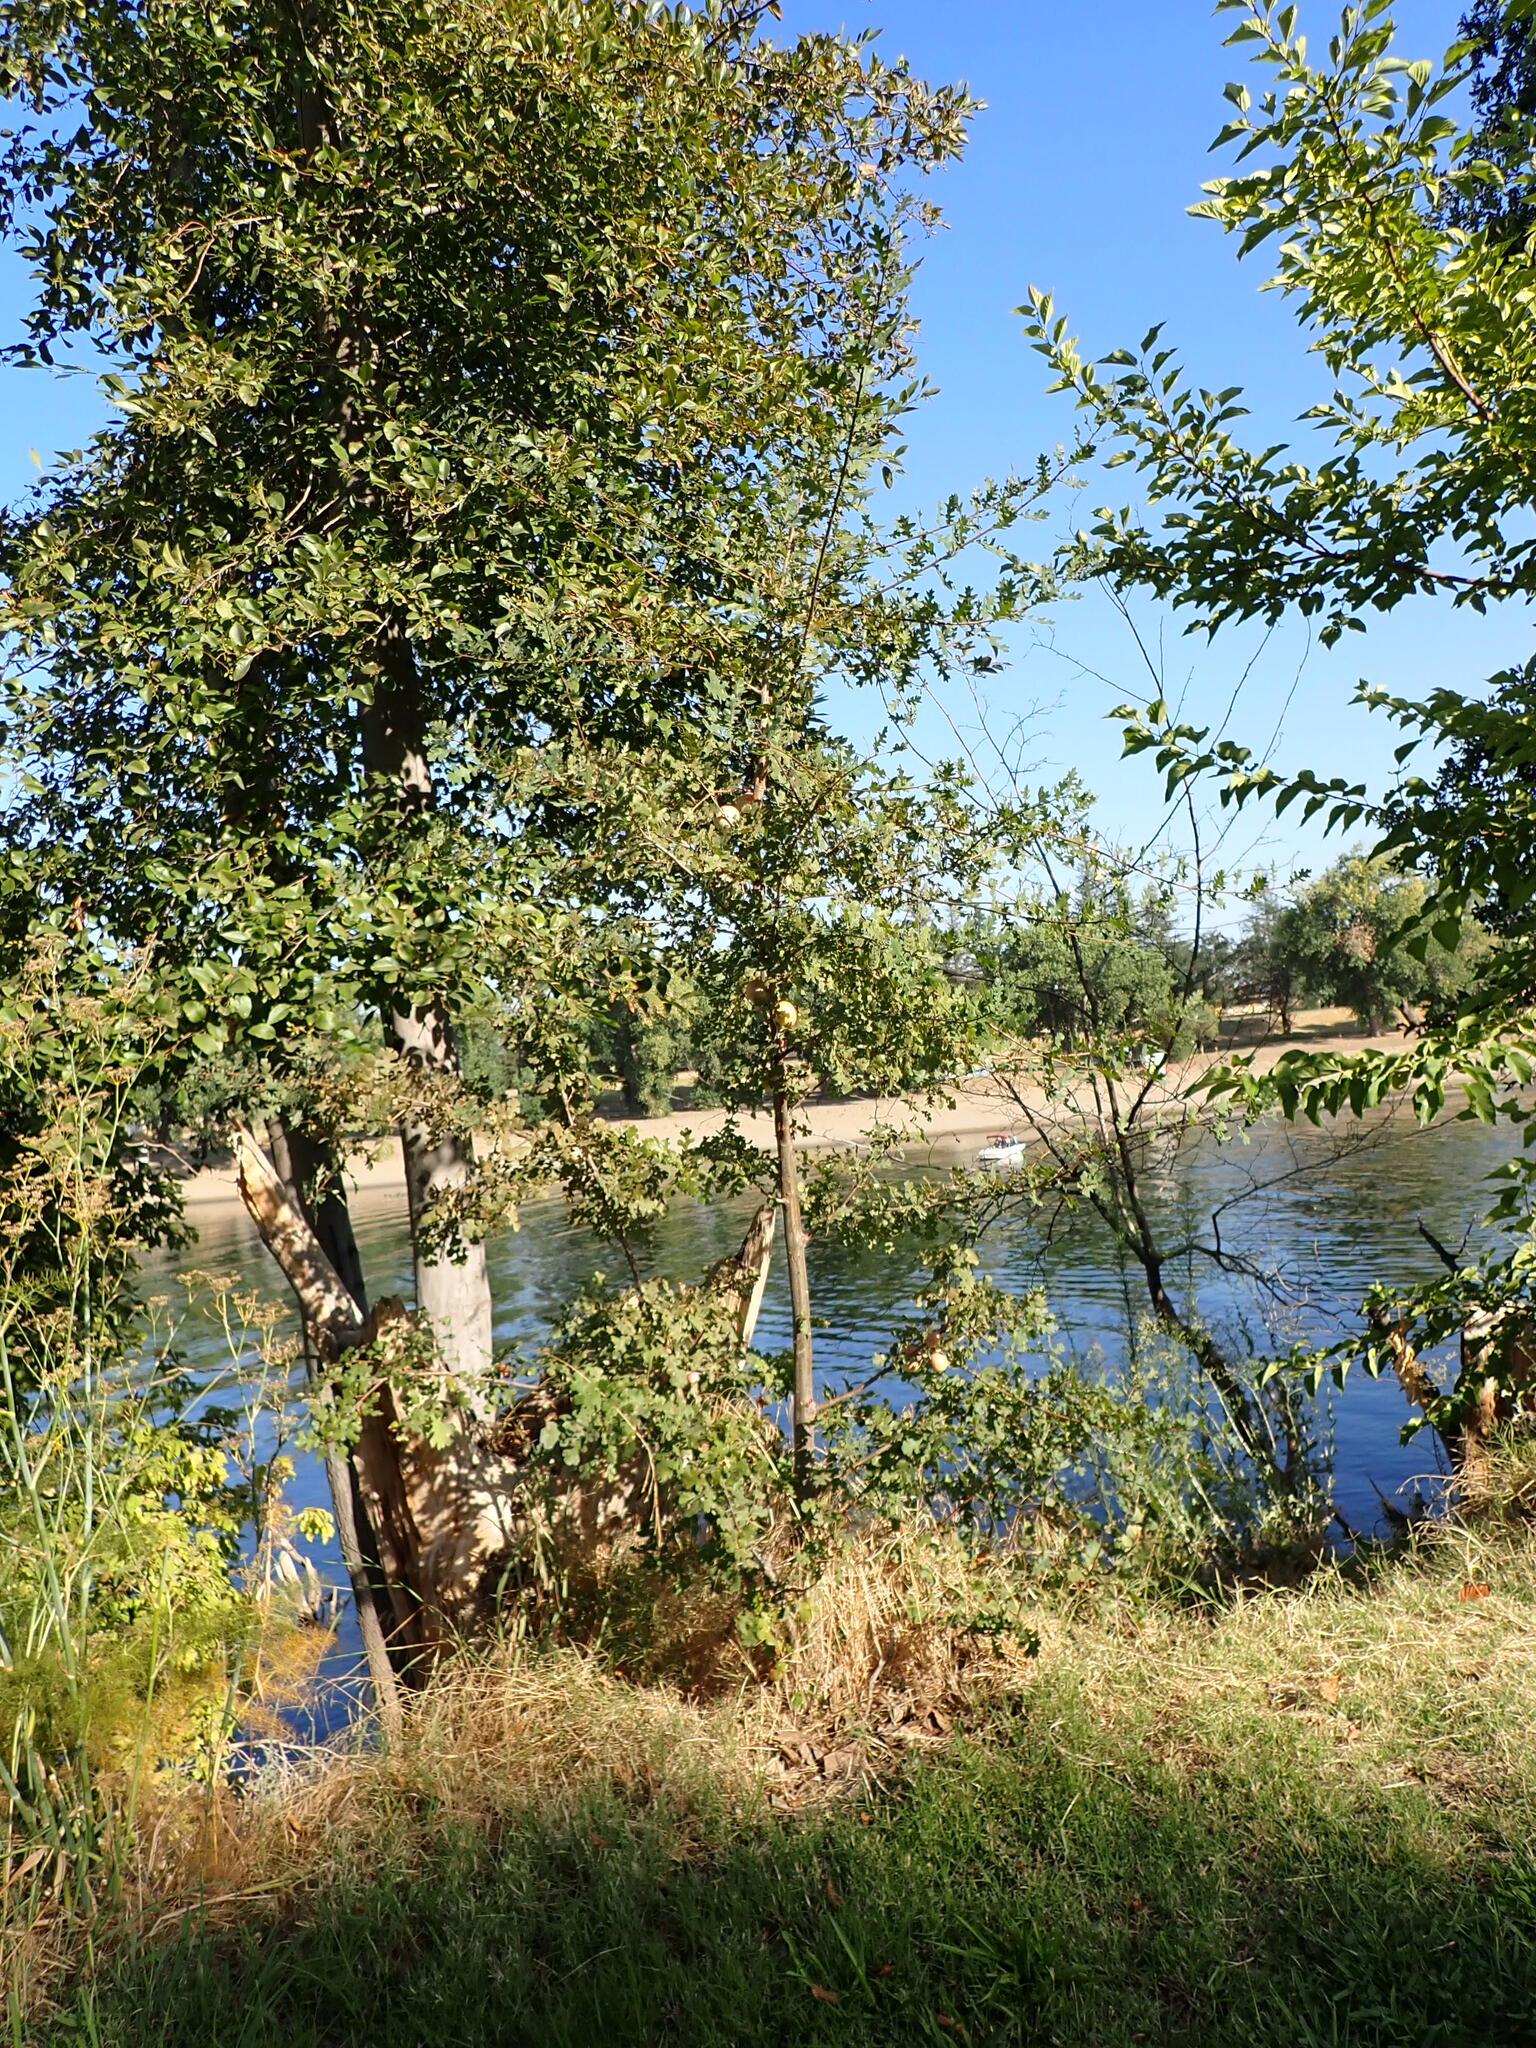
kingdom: Plantae
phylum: Tracheophyta
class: Magnoliopsida
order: Fagales
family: Fagaceae
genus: Quercus
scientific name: Quercus lobata
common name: Valley oak
